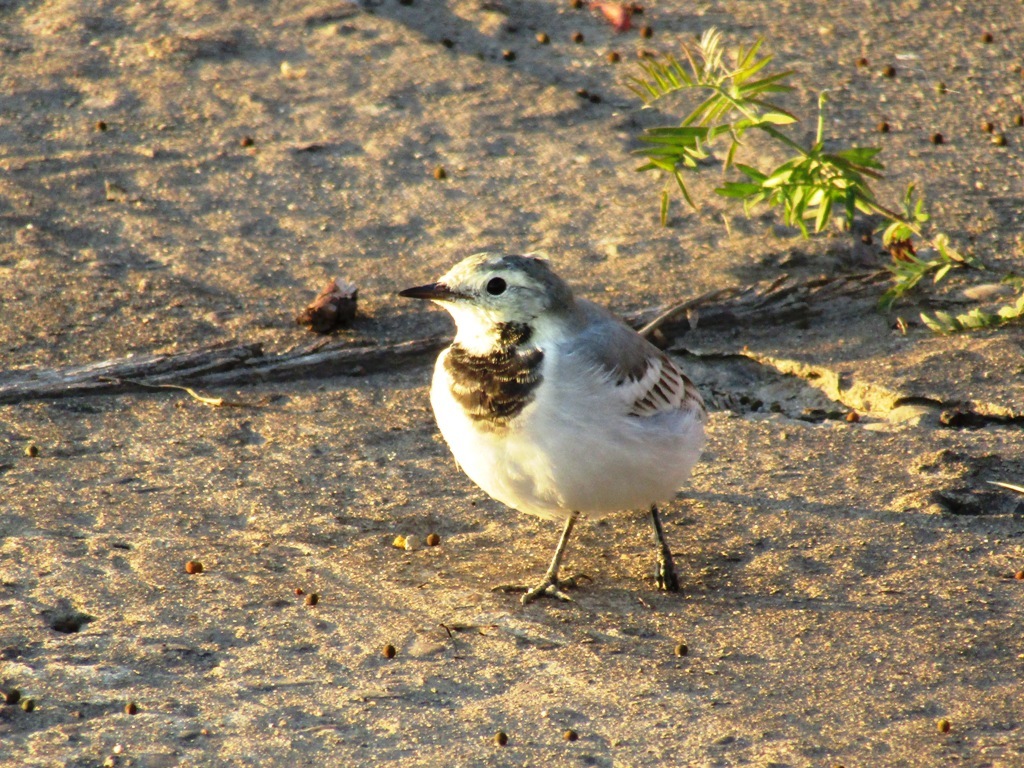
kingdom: Animalia
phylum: Chordata
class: Aves
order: Passeriformes
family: Motacillidae
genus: Motacilla
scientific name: Motacilla alba
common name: White wagtail
